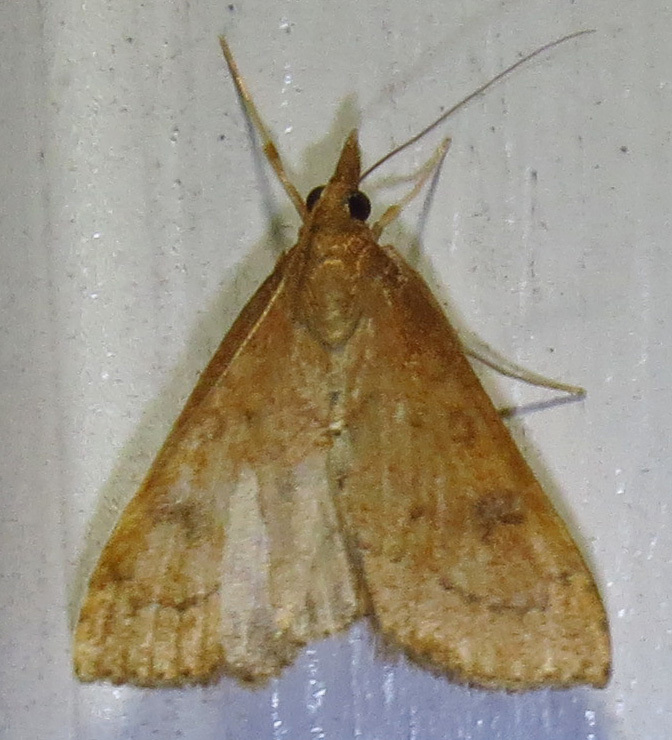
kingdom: Animalia
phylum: Arthropoda
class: Insecta
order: Lepidoptera
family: Crambidae
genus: Udea
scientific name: Udea rubigalis
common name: Celery leaftier moth
